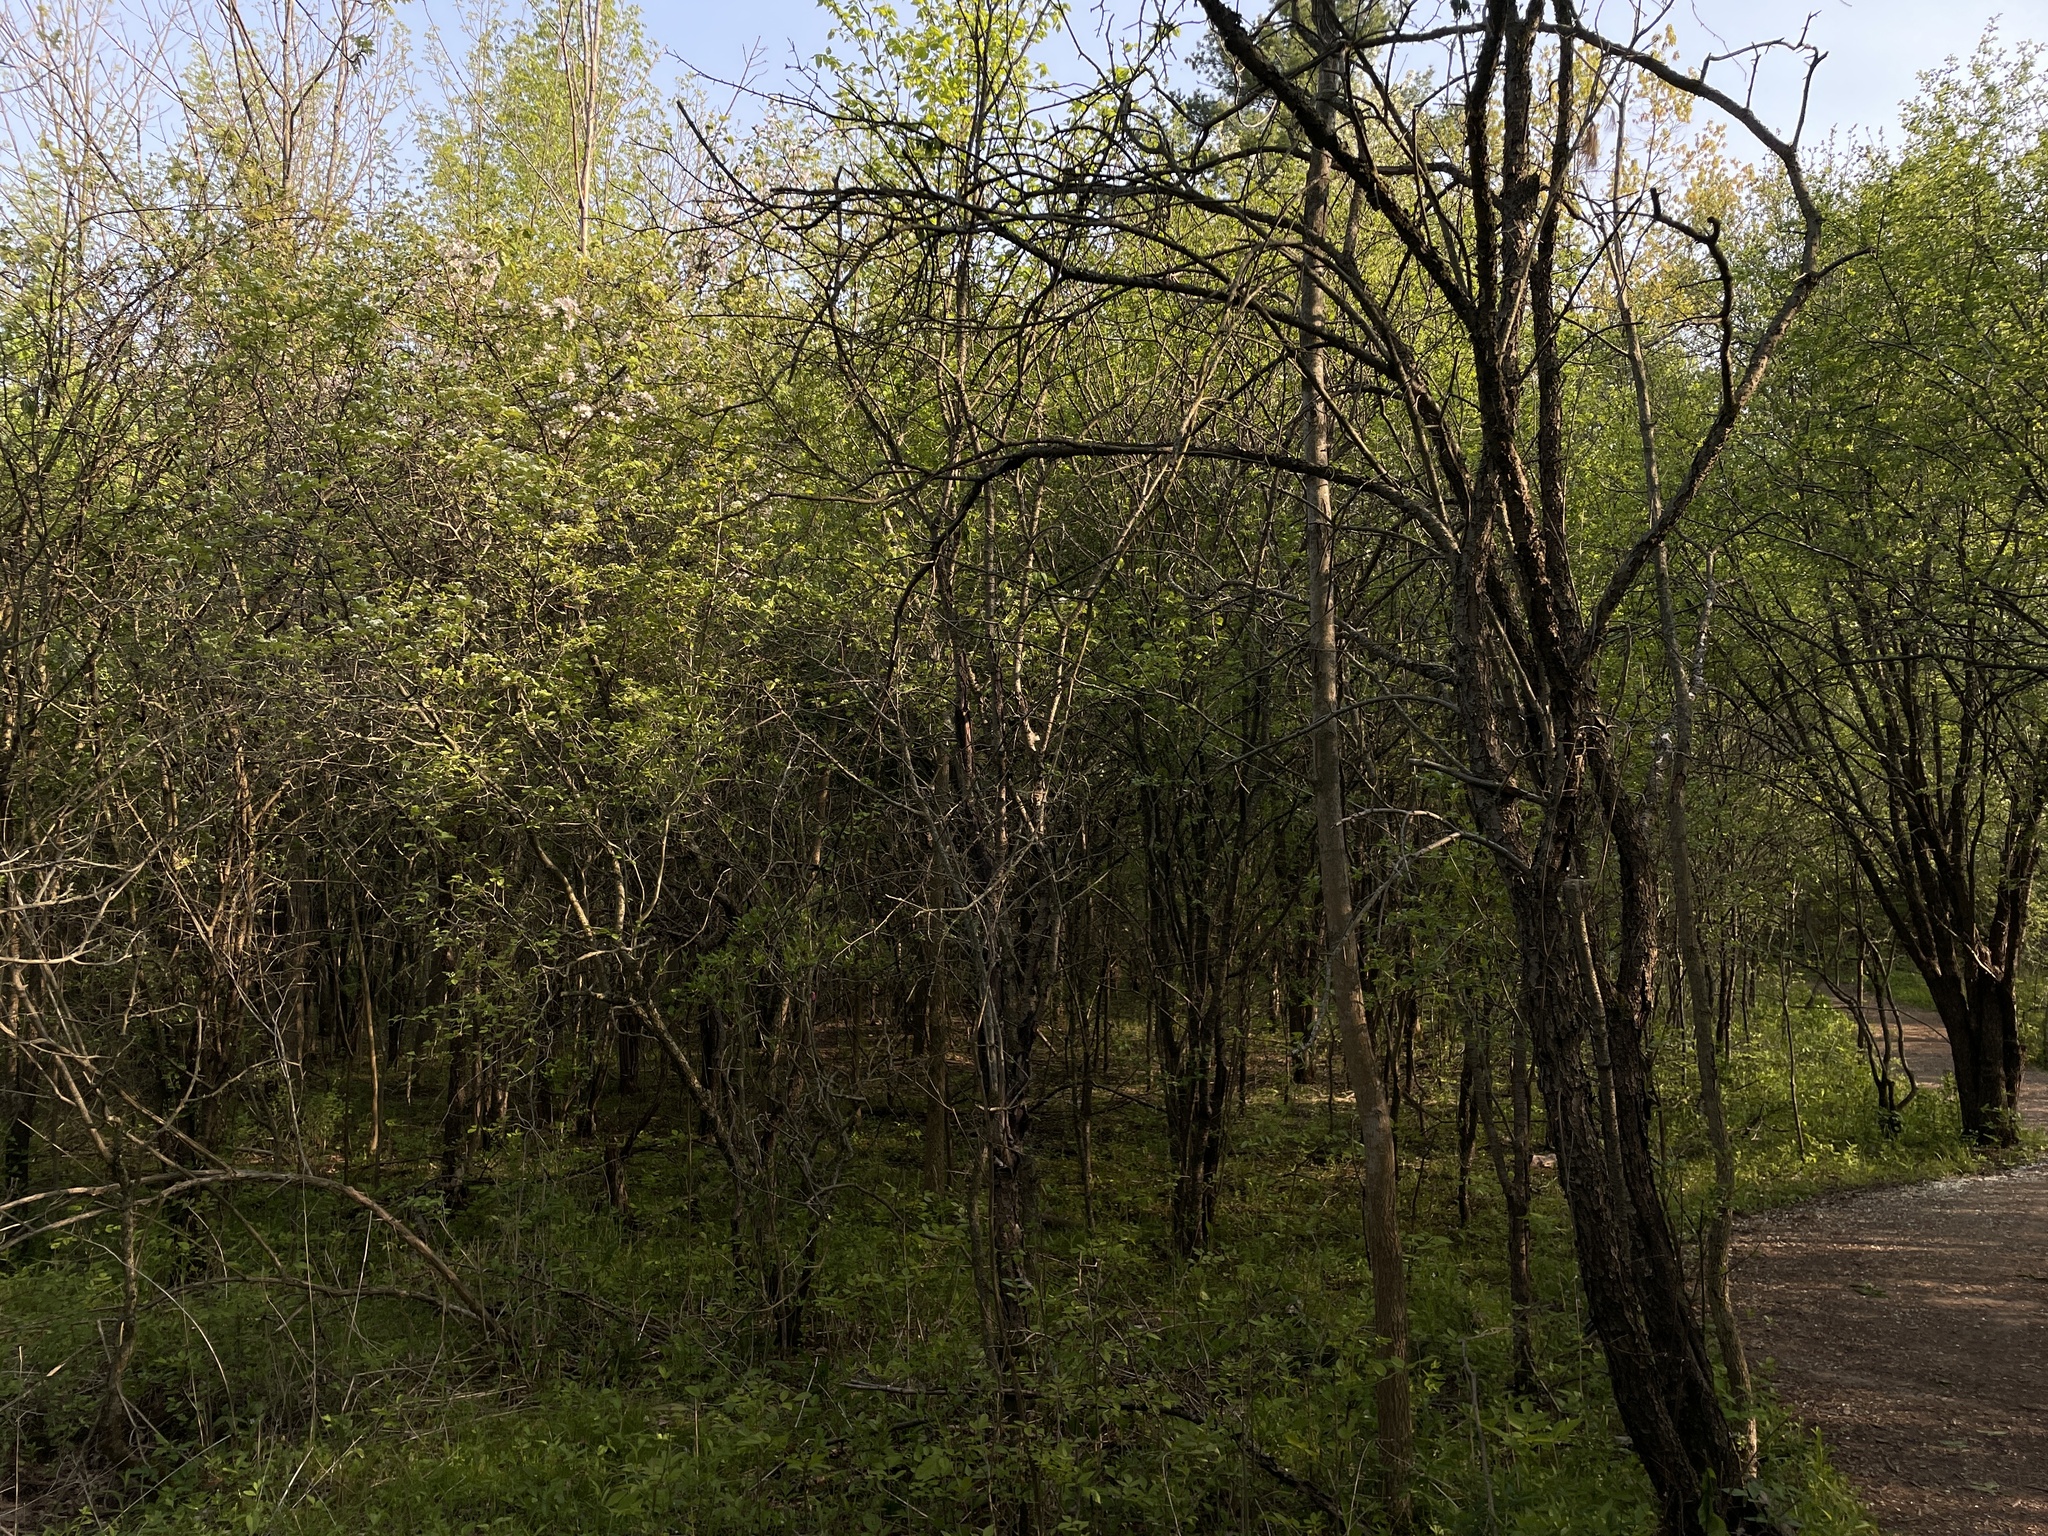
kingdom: Plantae
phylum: Tracheophyta
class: Magnoliopsida
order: Rosales
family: Rosaceae
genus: Malus
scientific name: Malus coronaria
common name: Sweet crab apple
